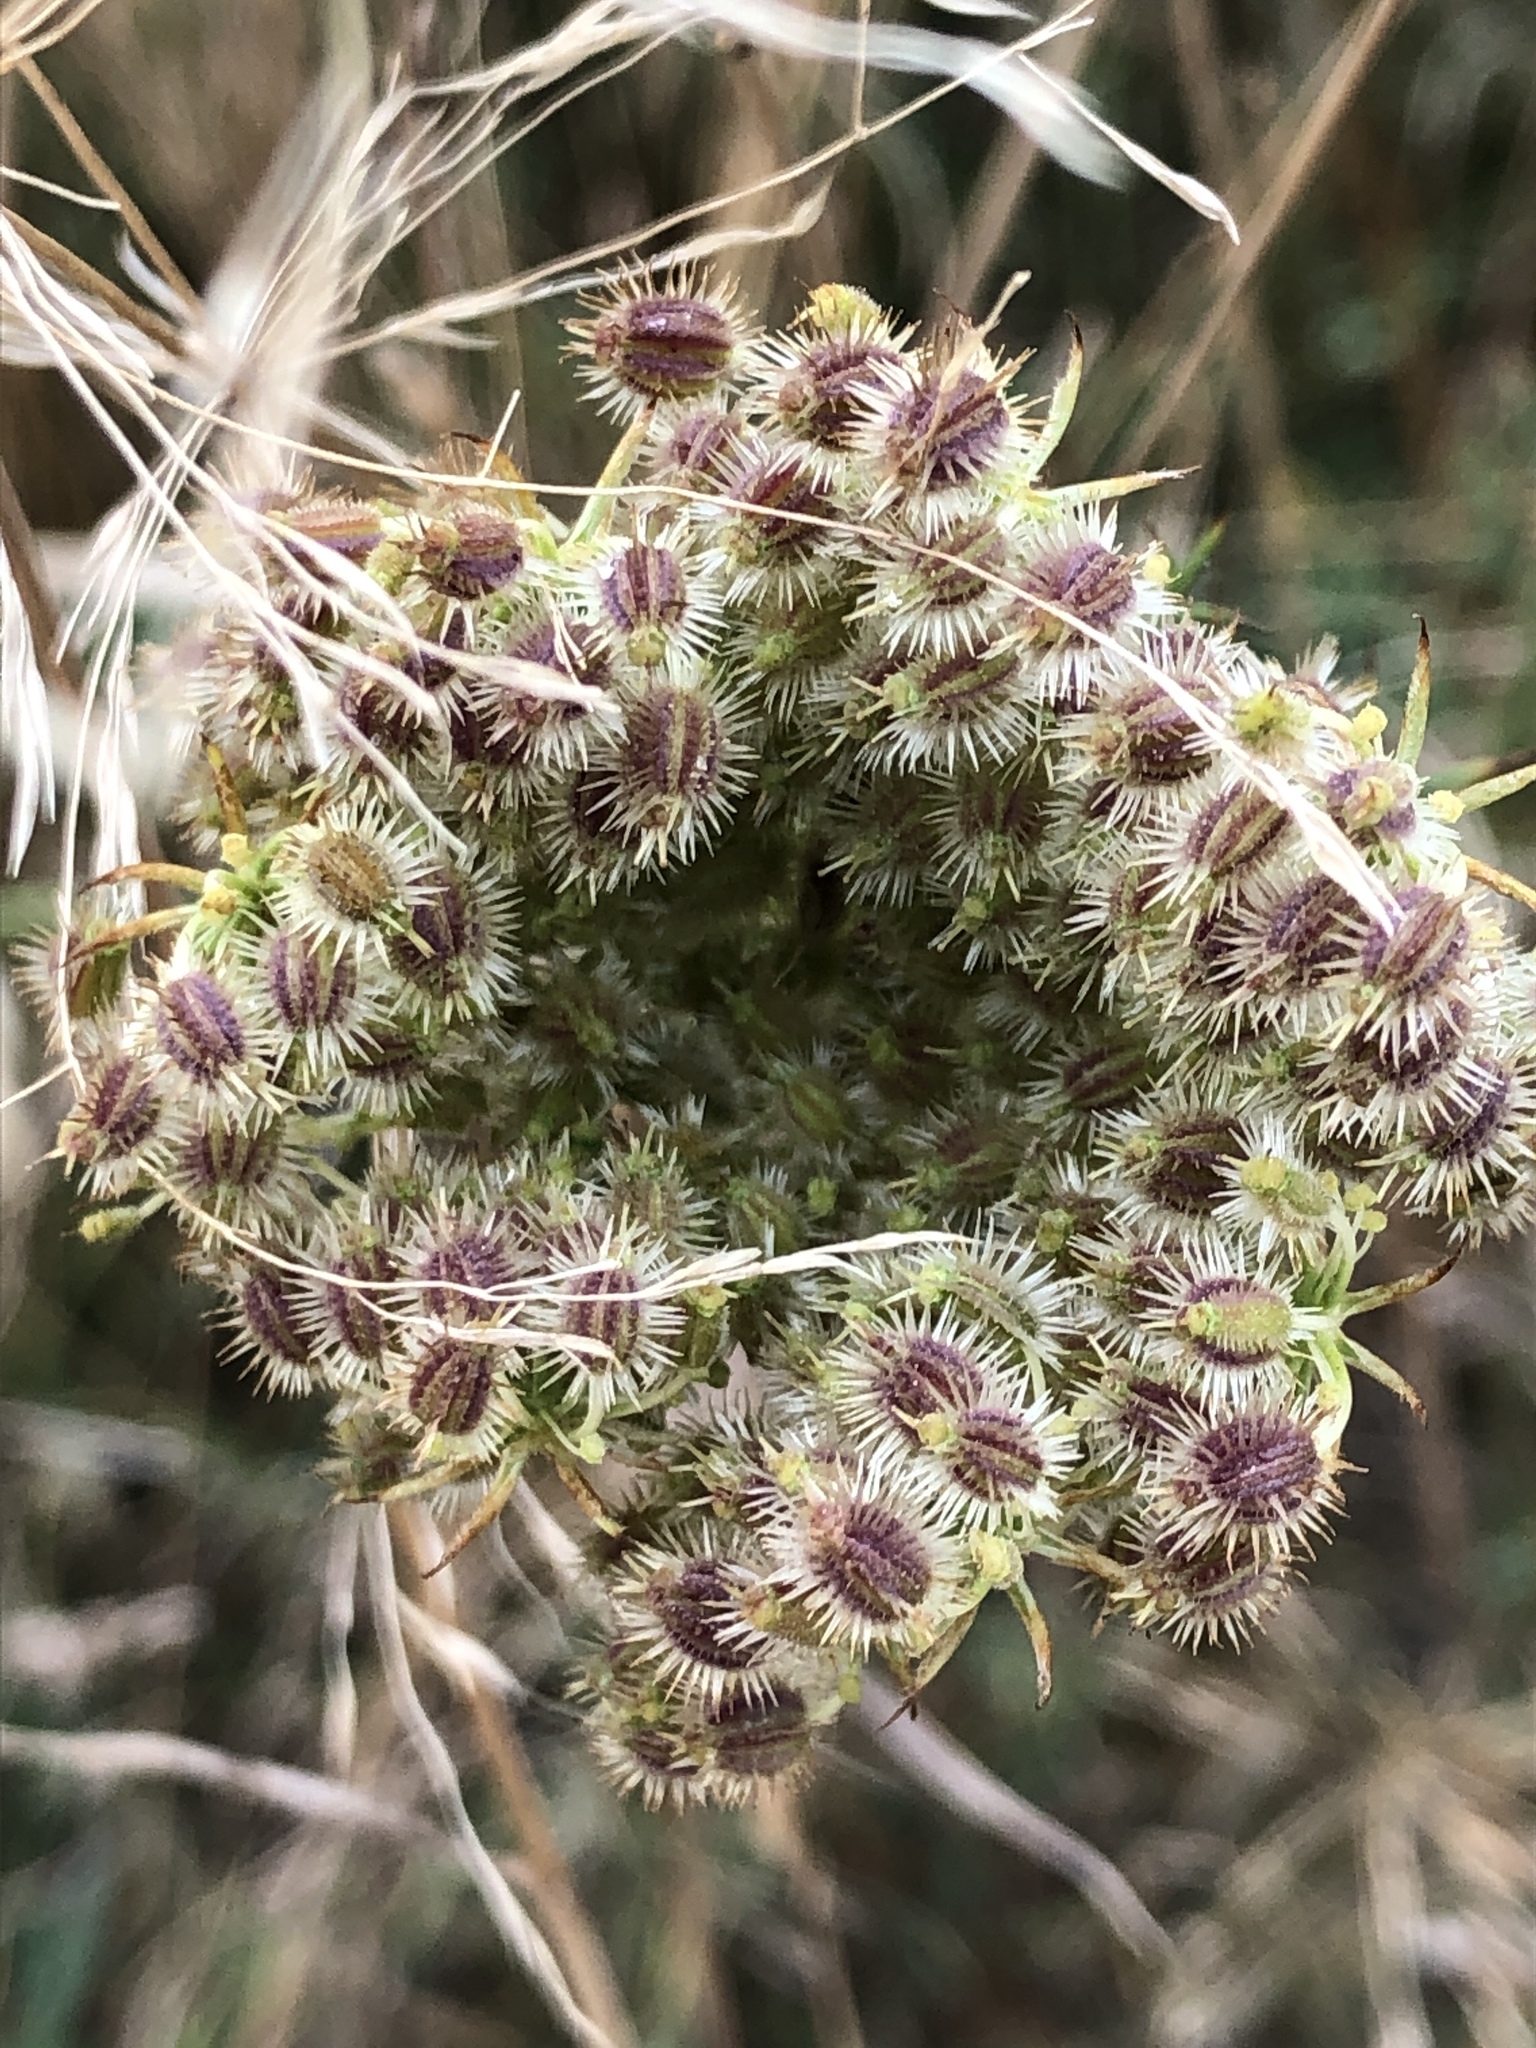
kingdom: Plantae
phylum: Tracheophyta
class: Magnoliopsida
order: Apiales
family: Apiaceae
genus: Daucus
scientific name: Daucus carota
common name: Wild carrot
